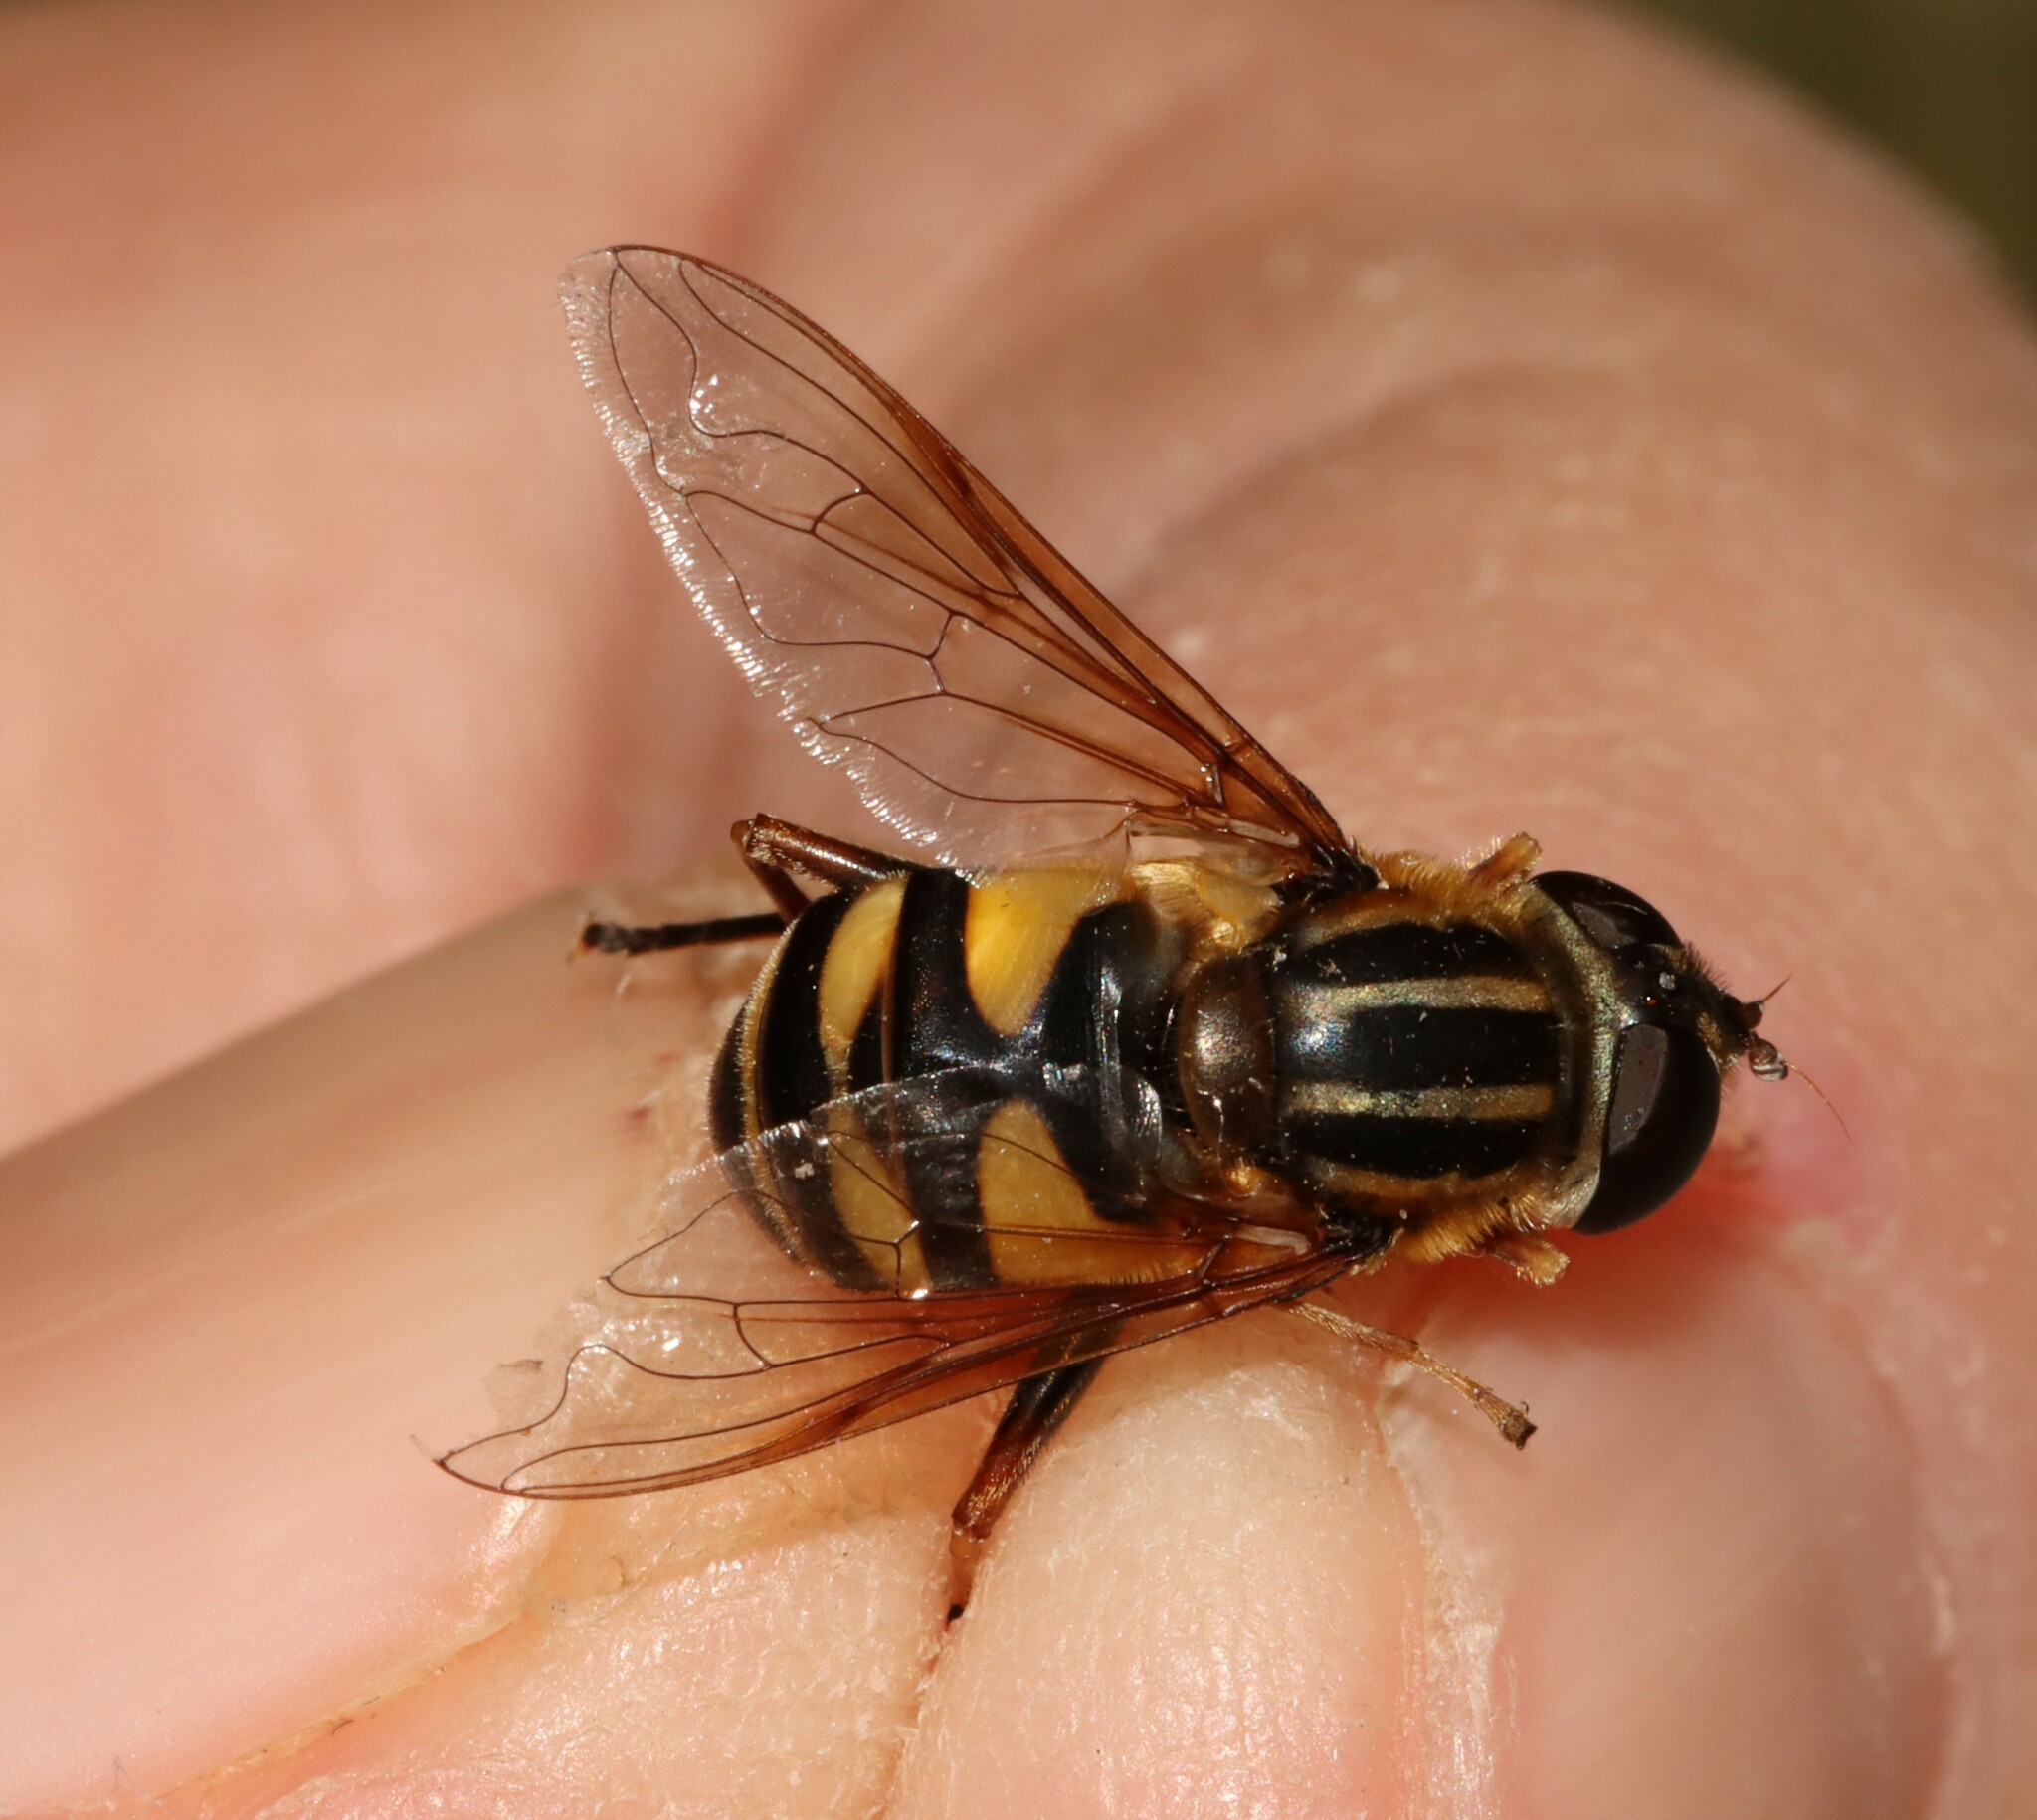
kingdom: Animalia
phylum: Arthropoda
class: Insecta
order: Diptera
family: Syrphidae
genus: Helophilus
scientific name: Helophilus fasciatus
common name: Narrow-headed marsh fly
